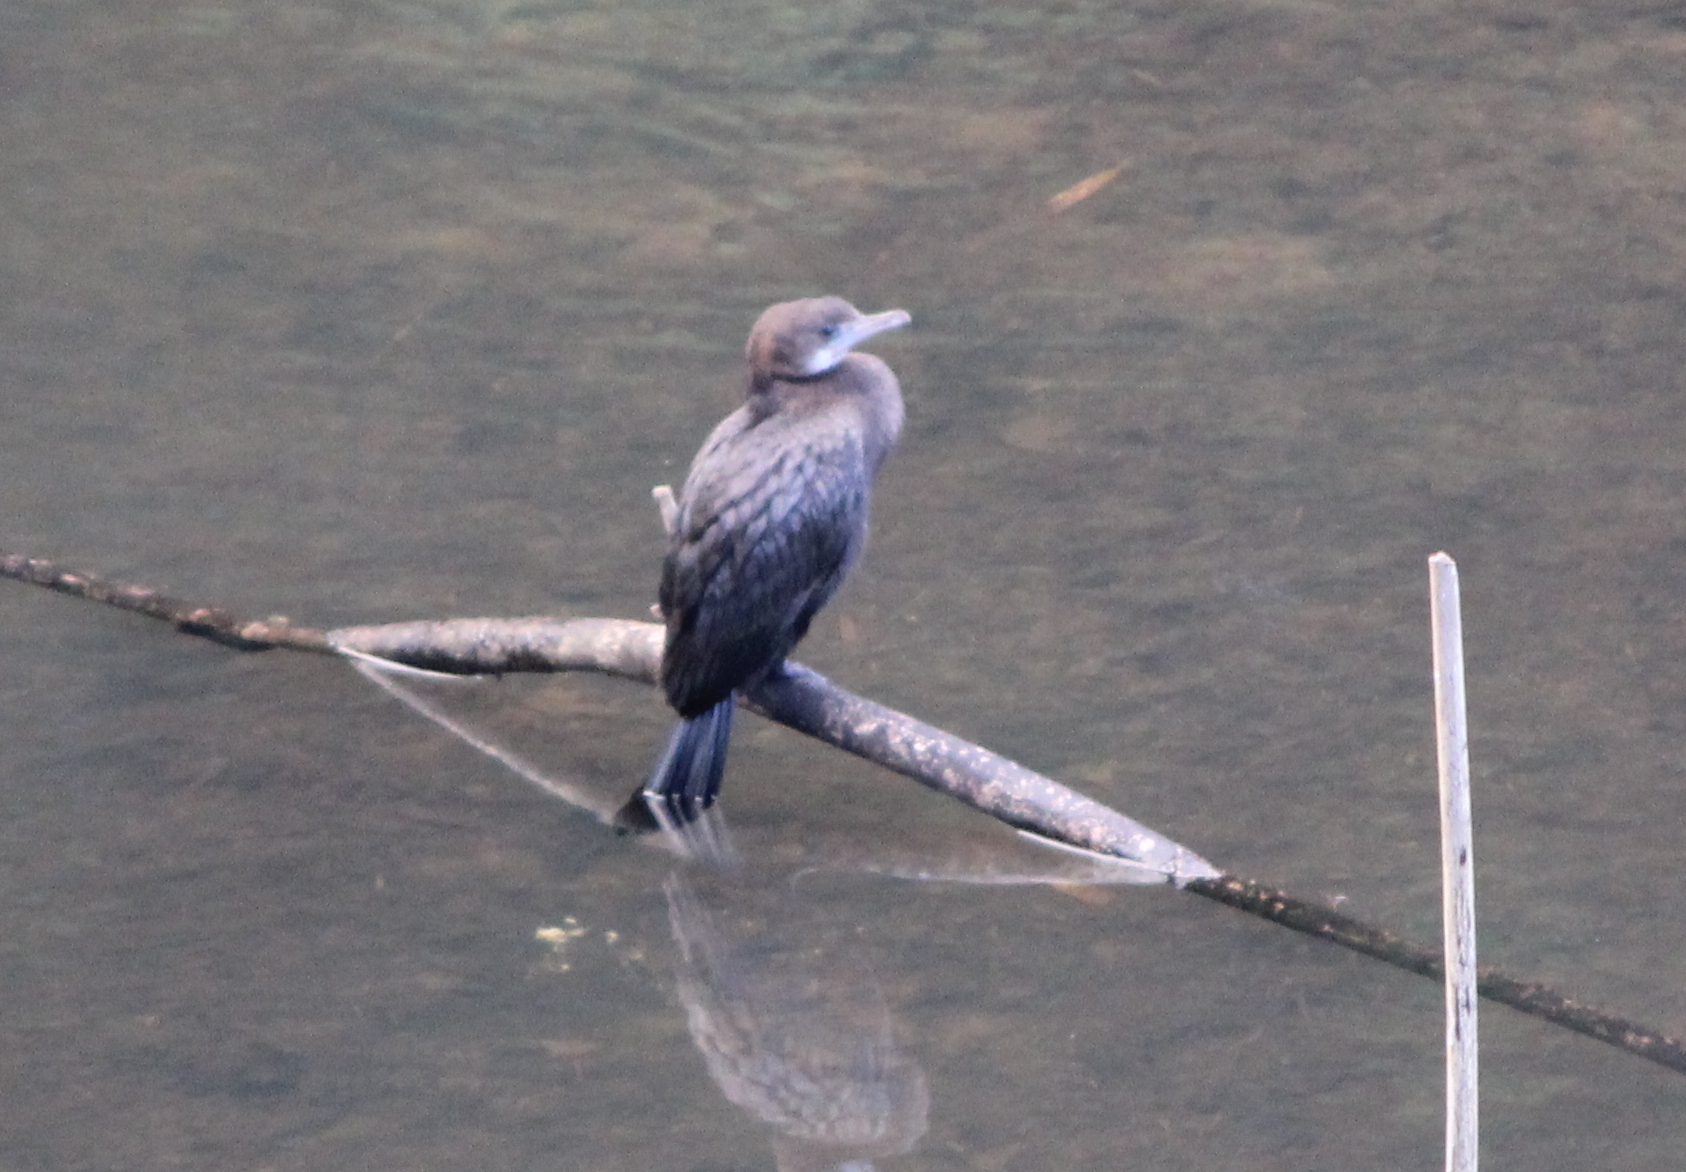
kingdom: Animalia
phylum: Chordata
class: Aves
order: Suliformes
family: Phalacrocoracidae
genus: Microcarbo
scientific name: Microcarbo niger
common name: Little cormorant
